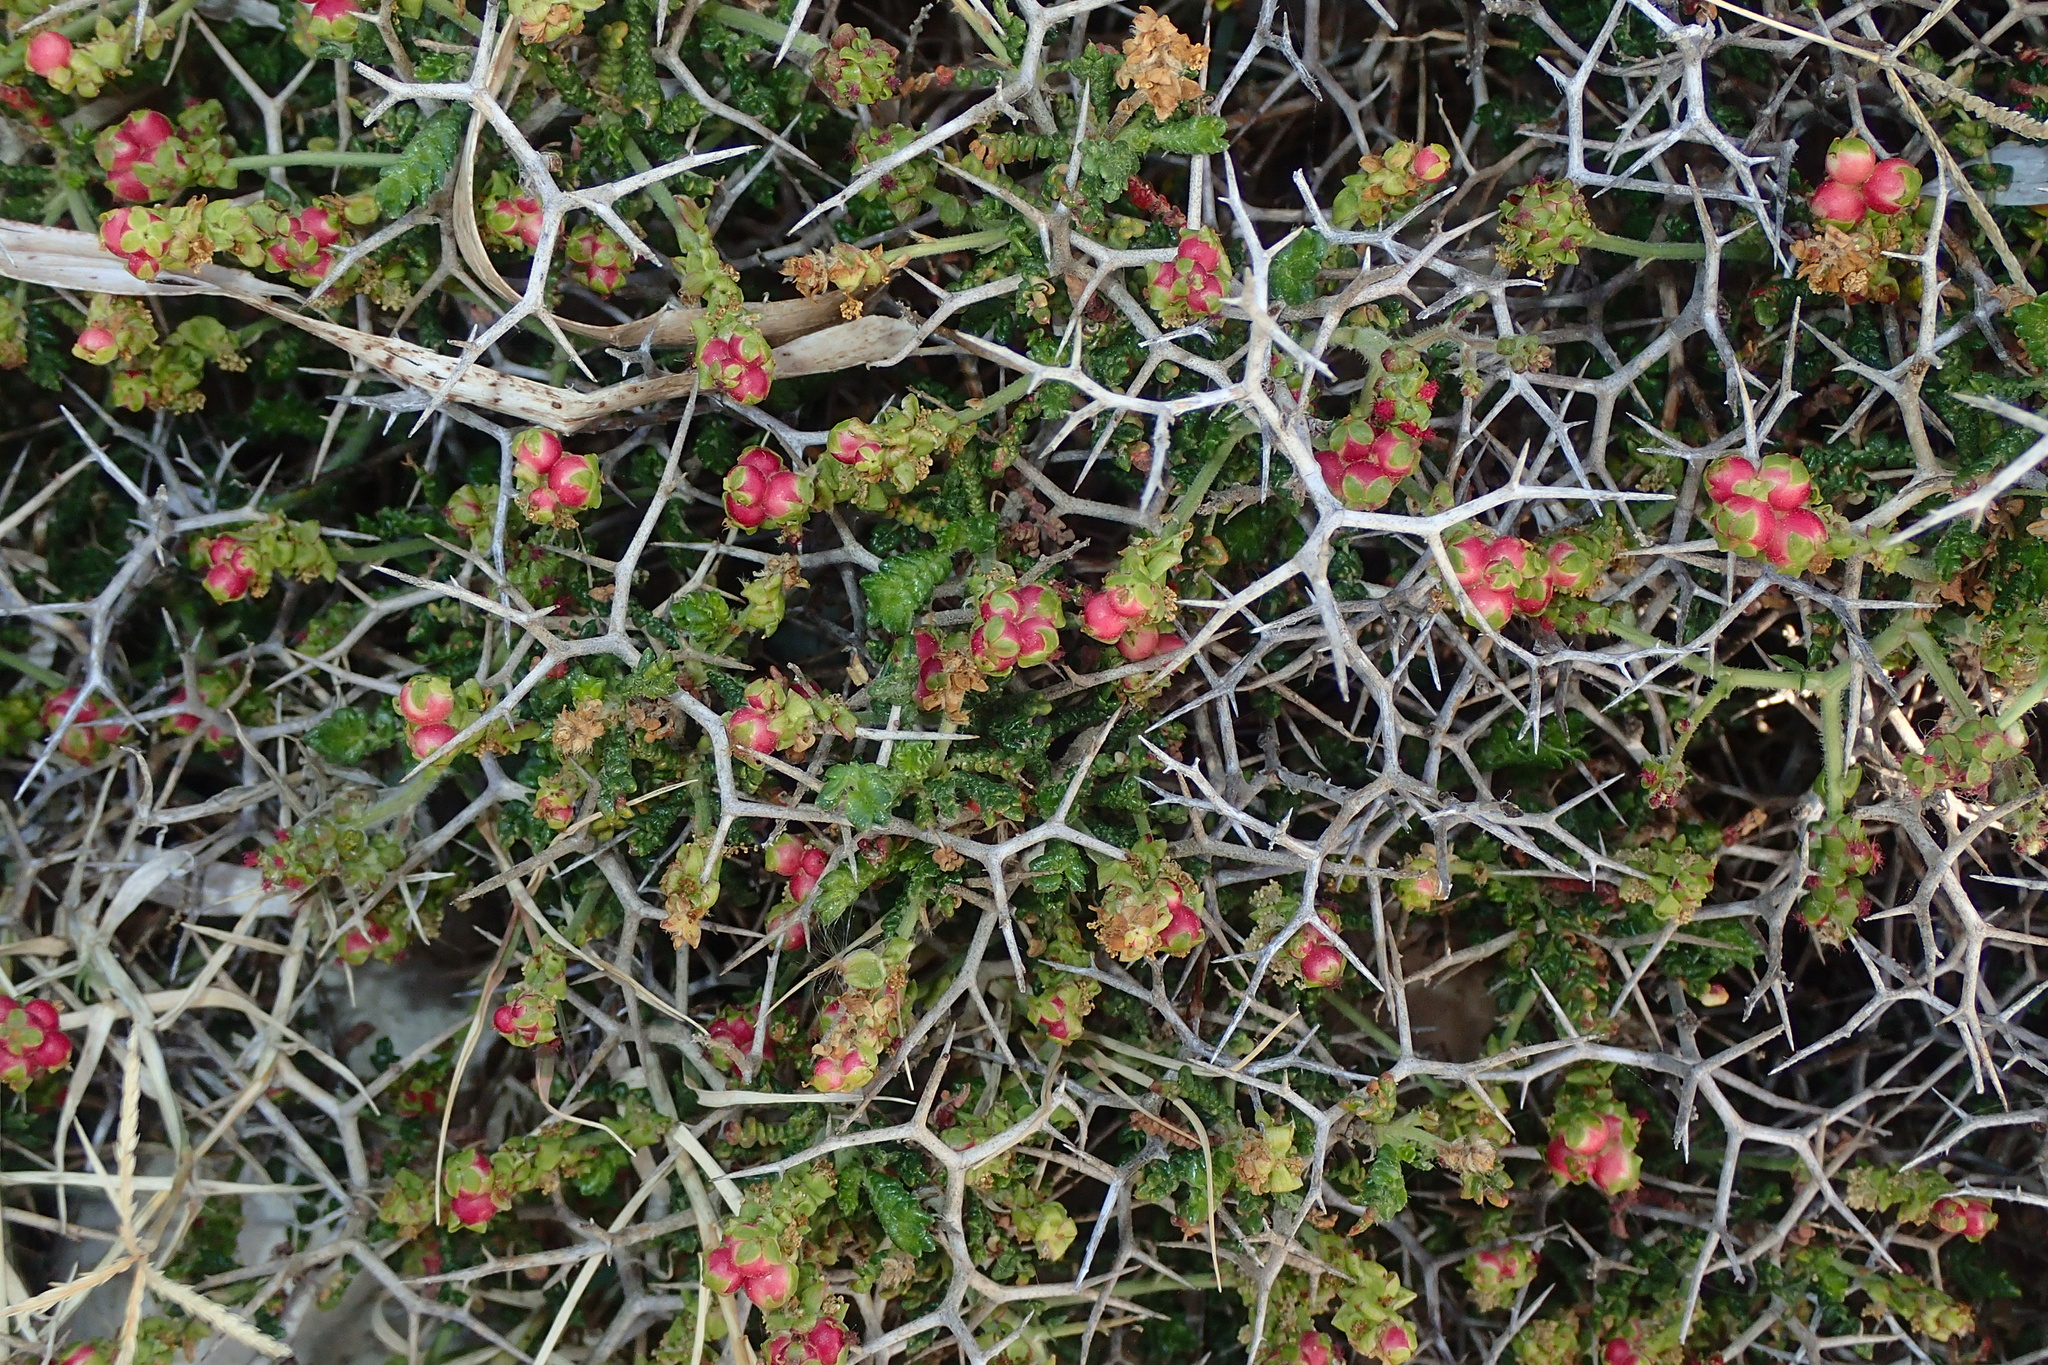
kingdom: Plantae
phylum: Tracheophyta
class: Magnoliopsida
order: Rosales
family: Rosaceae
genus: Sarcopoterium
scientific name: Sarcopoterium spinosum
